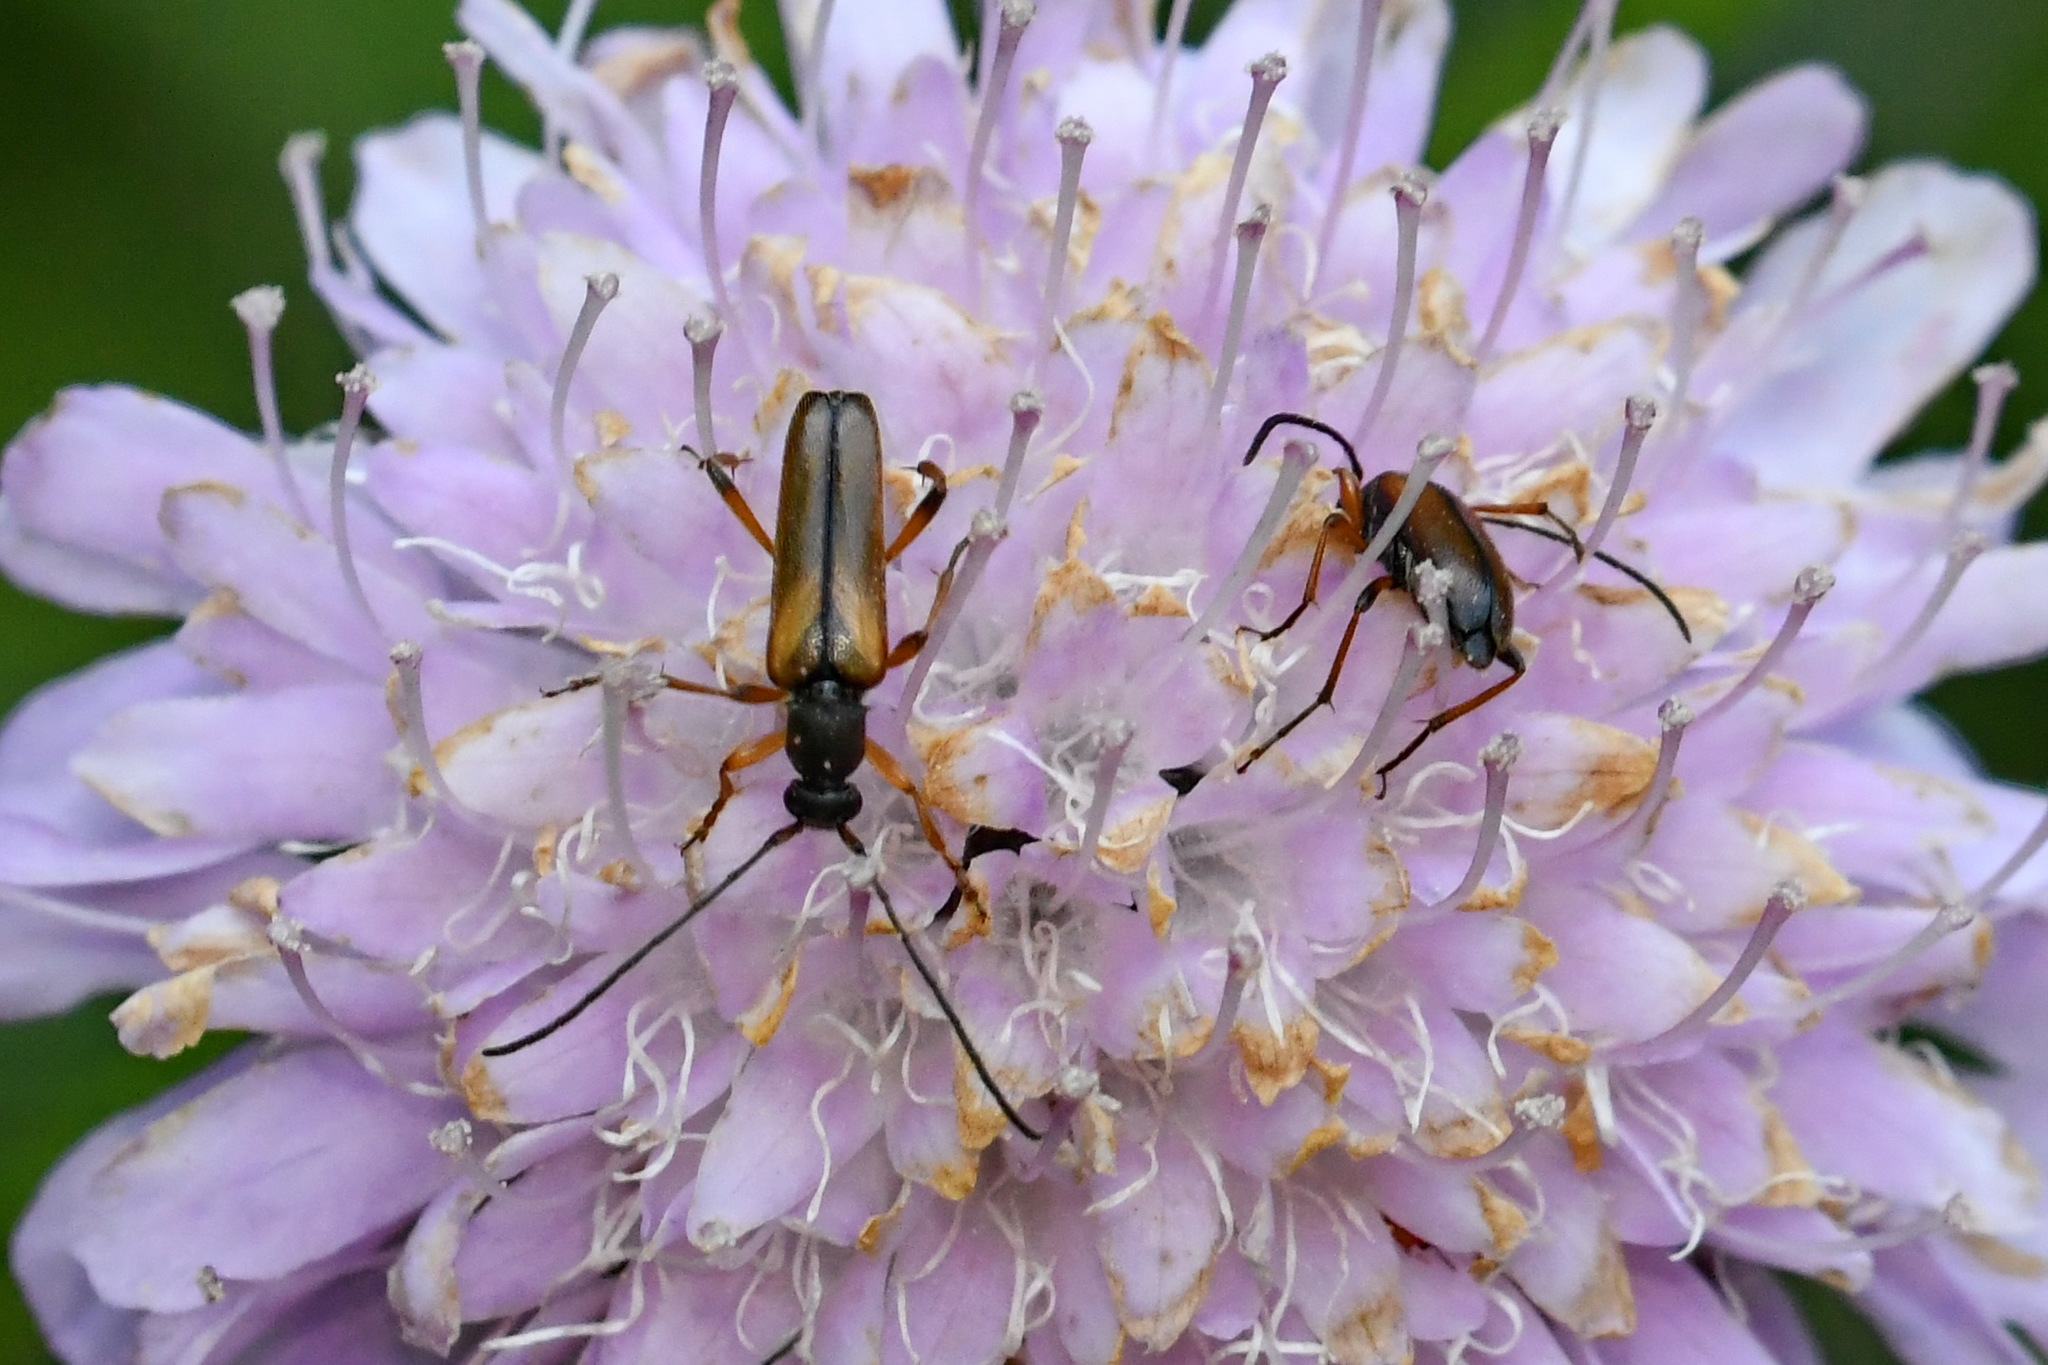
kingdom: Animalia
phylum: Arthropoda
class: Insecta
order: Coleoptera
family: Cerambycidae
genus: Alosterna
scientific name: Alosterna tabacicolor
